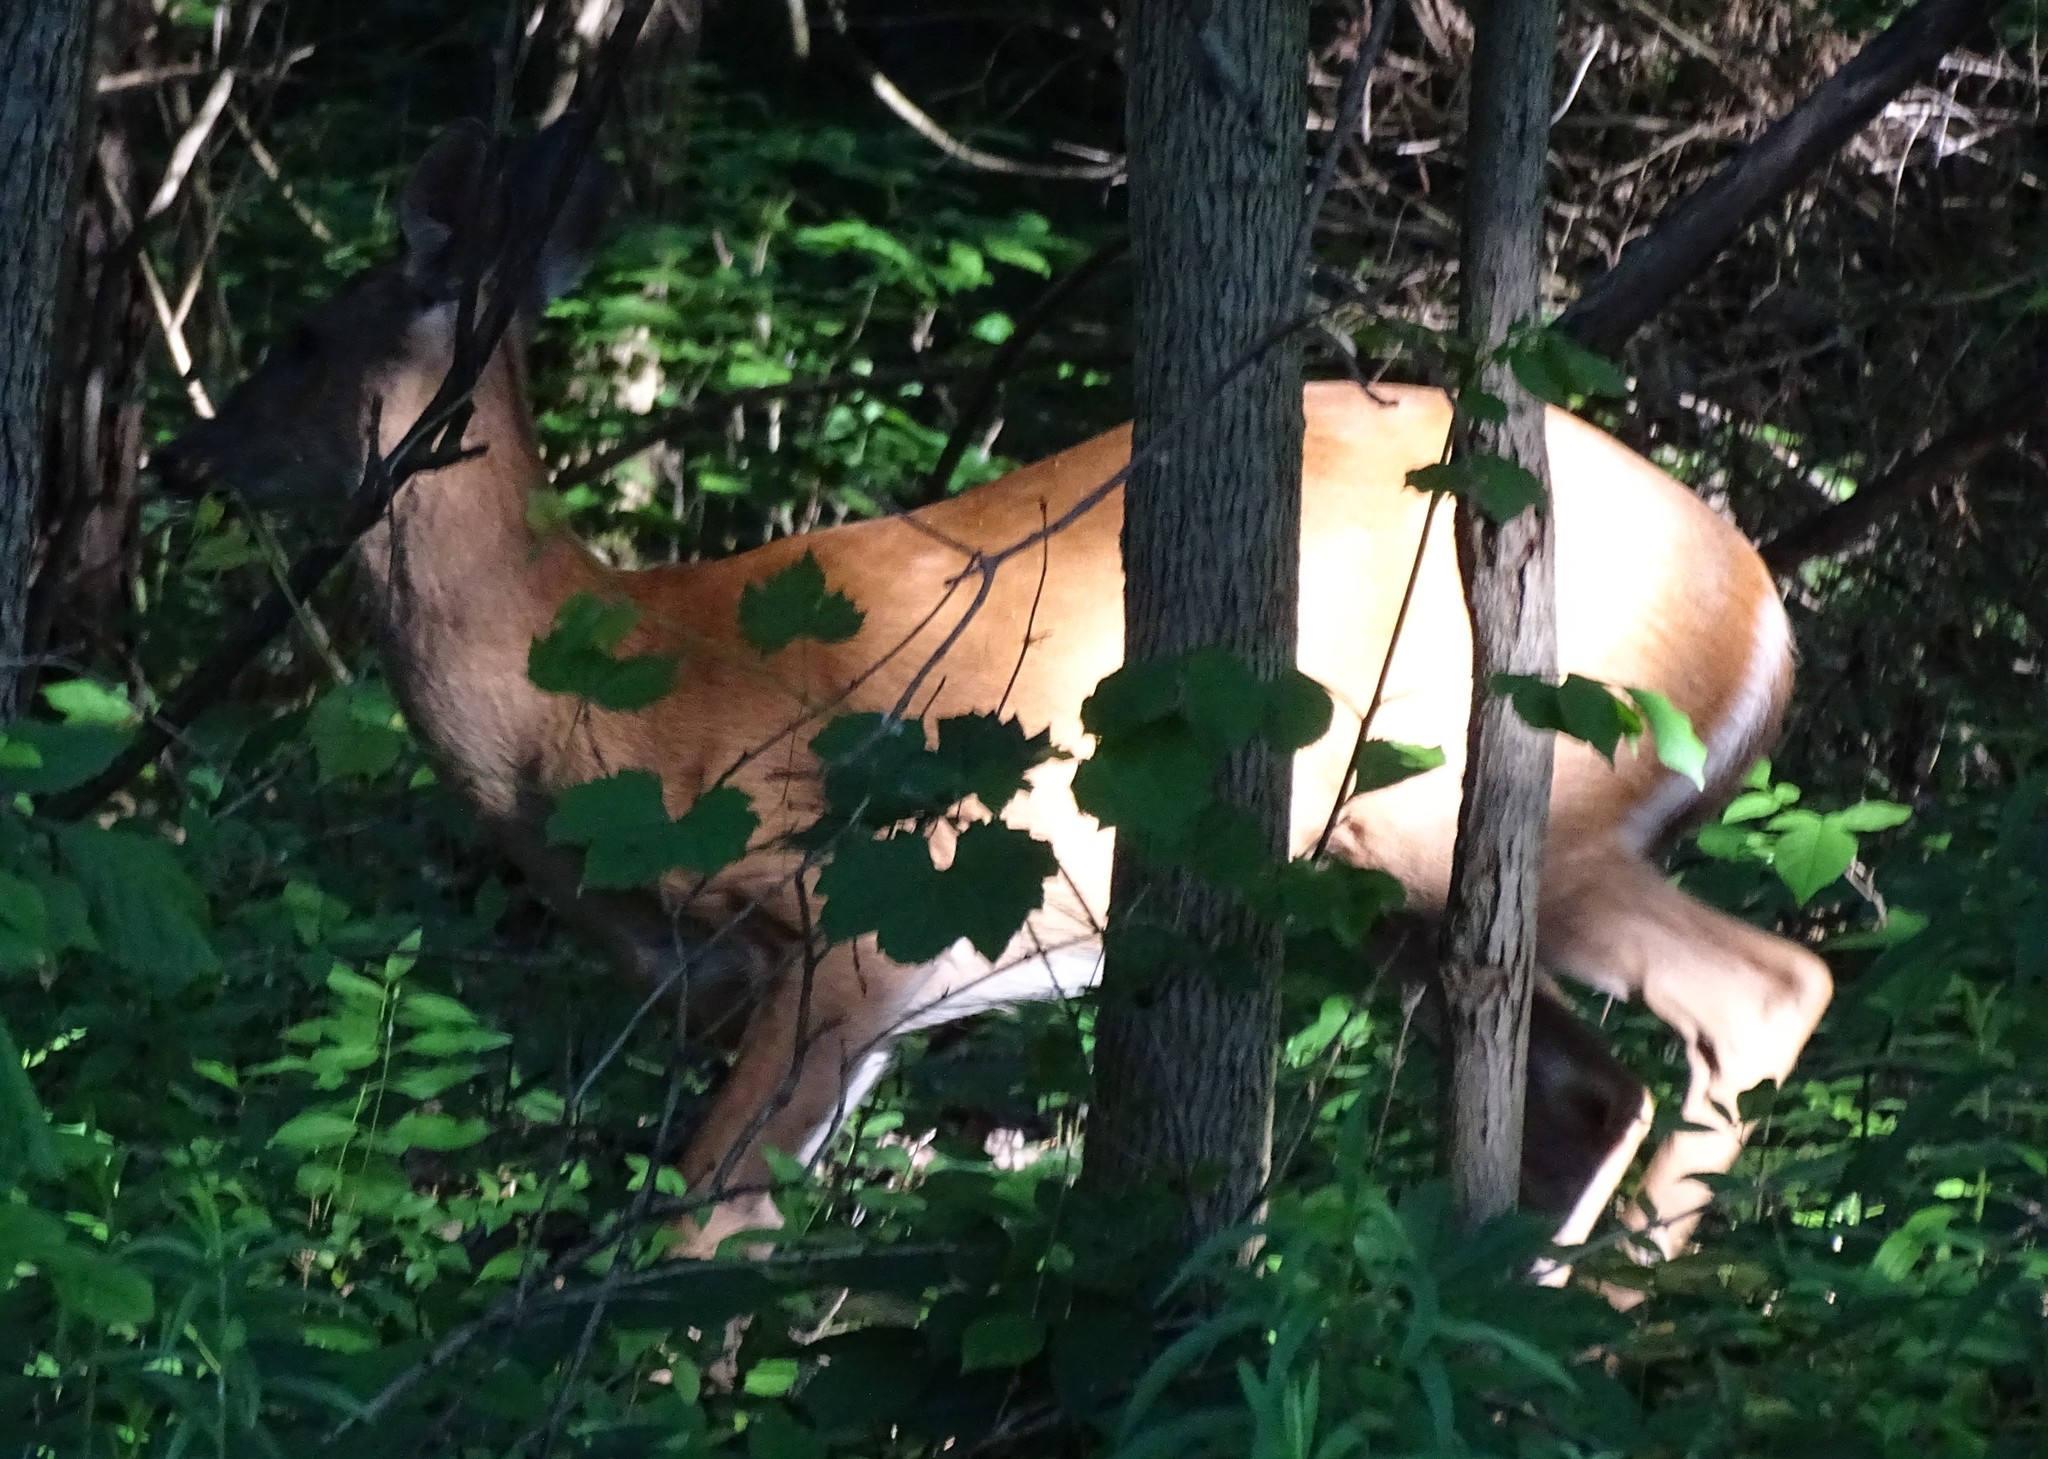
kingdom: Animalia
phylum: Chordata
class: Mammalia
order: Artiodactyla
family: Cervidae
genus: Odocoileus
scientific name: Odocoileus virginianus
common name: White-tailed deer
